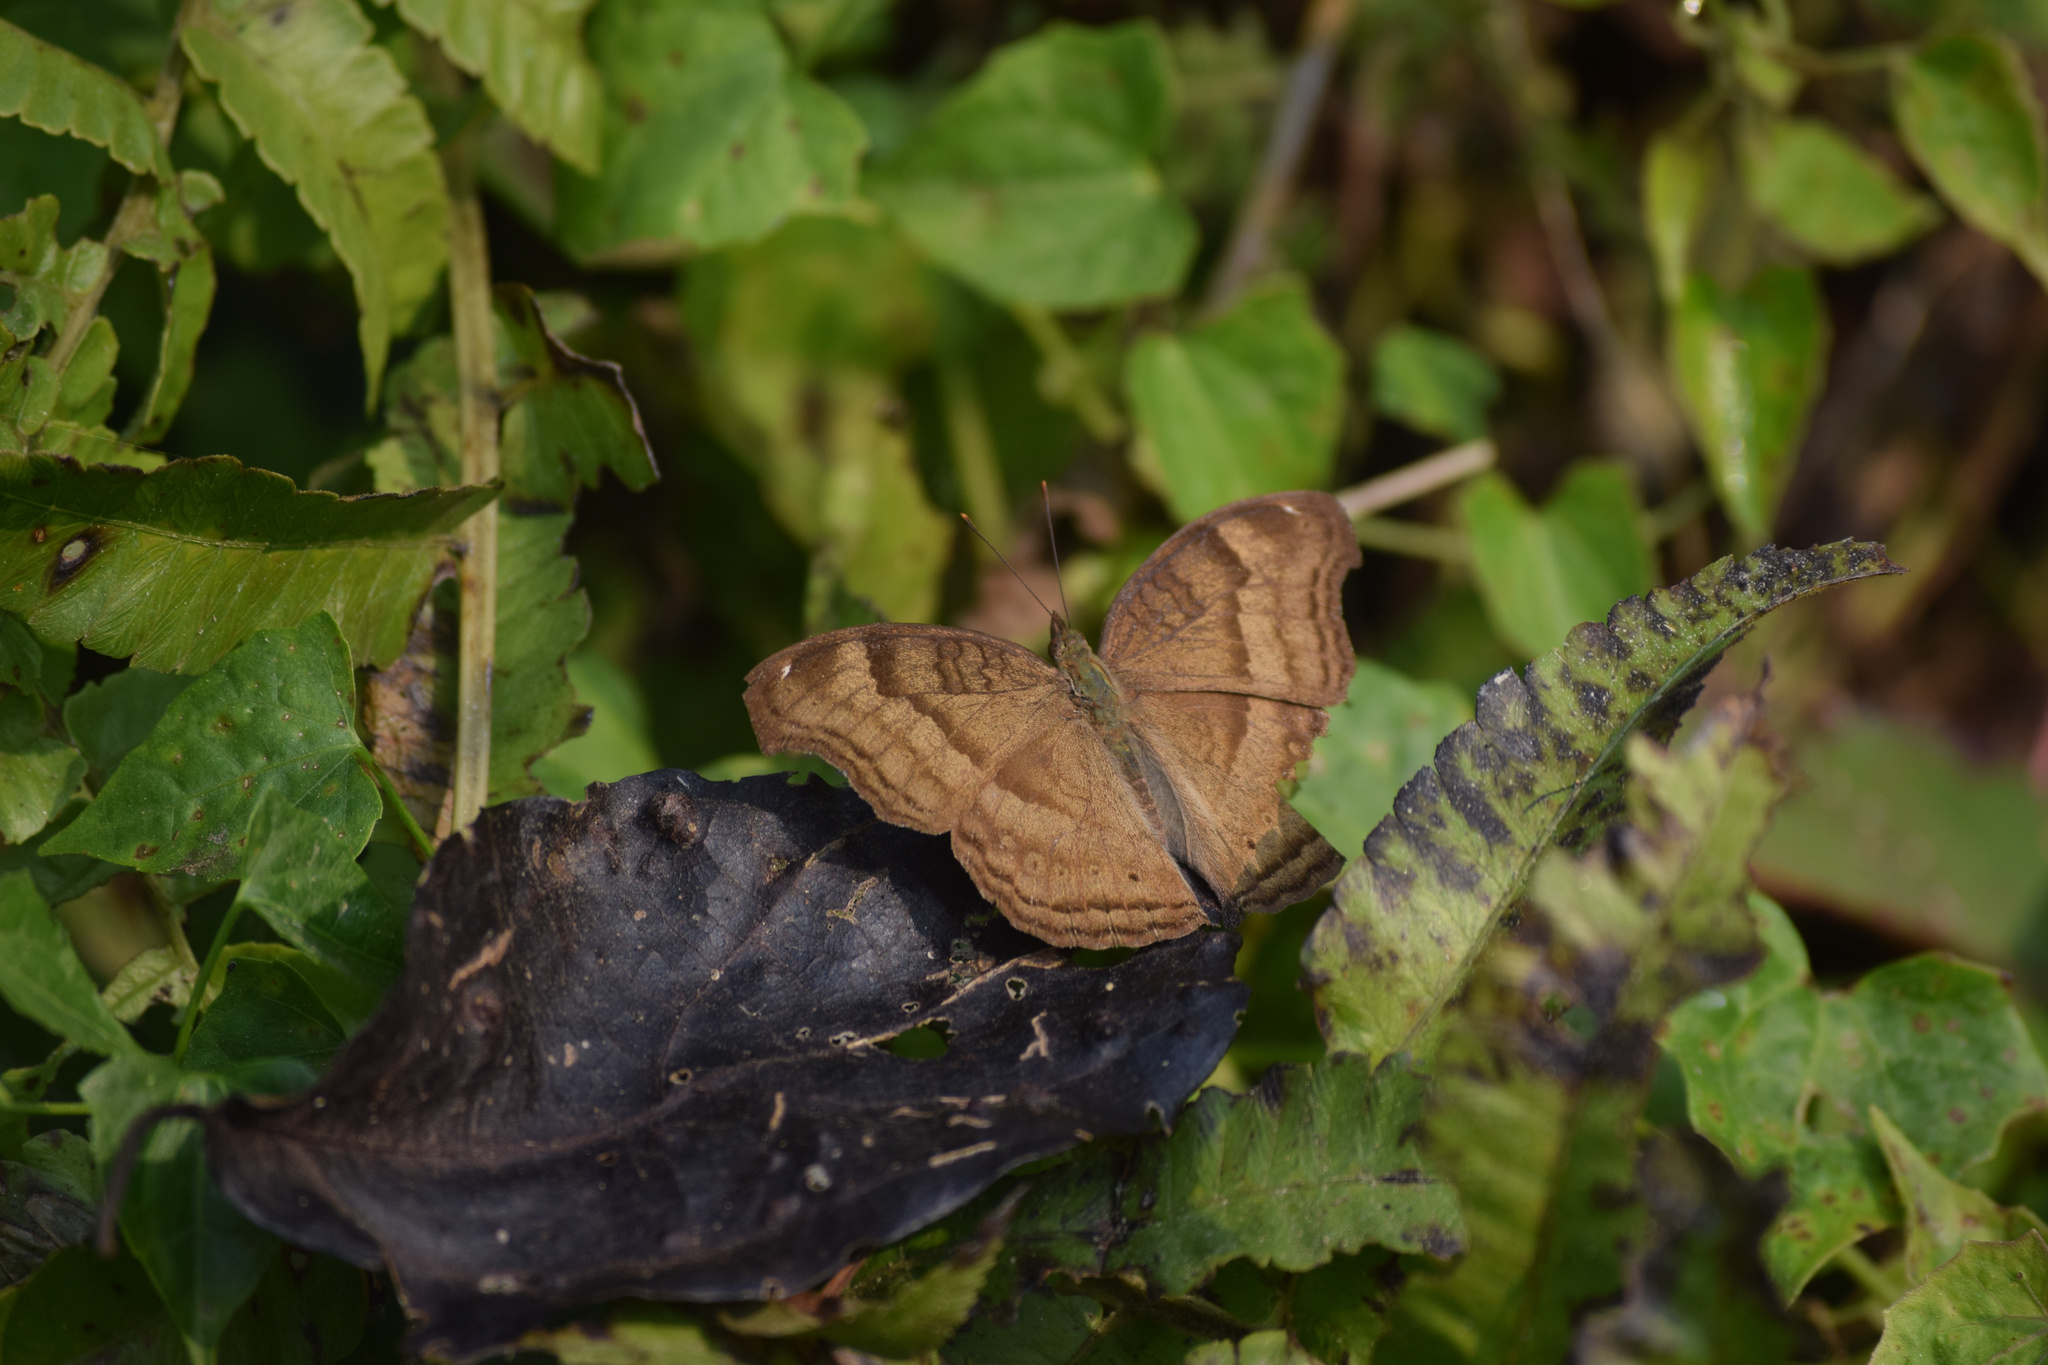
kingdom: Animalia
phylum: Arthropoda
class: Insecta
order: Lepidoptera
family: Nymphalidae
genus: Junonia
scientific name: Junonia iphita
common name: Chocolate pansy
